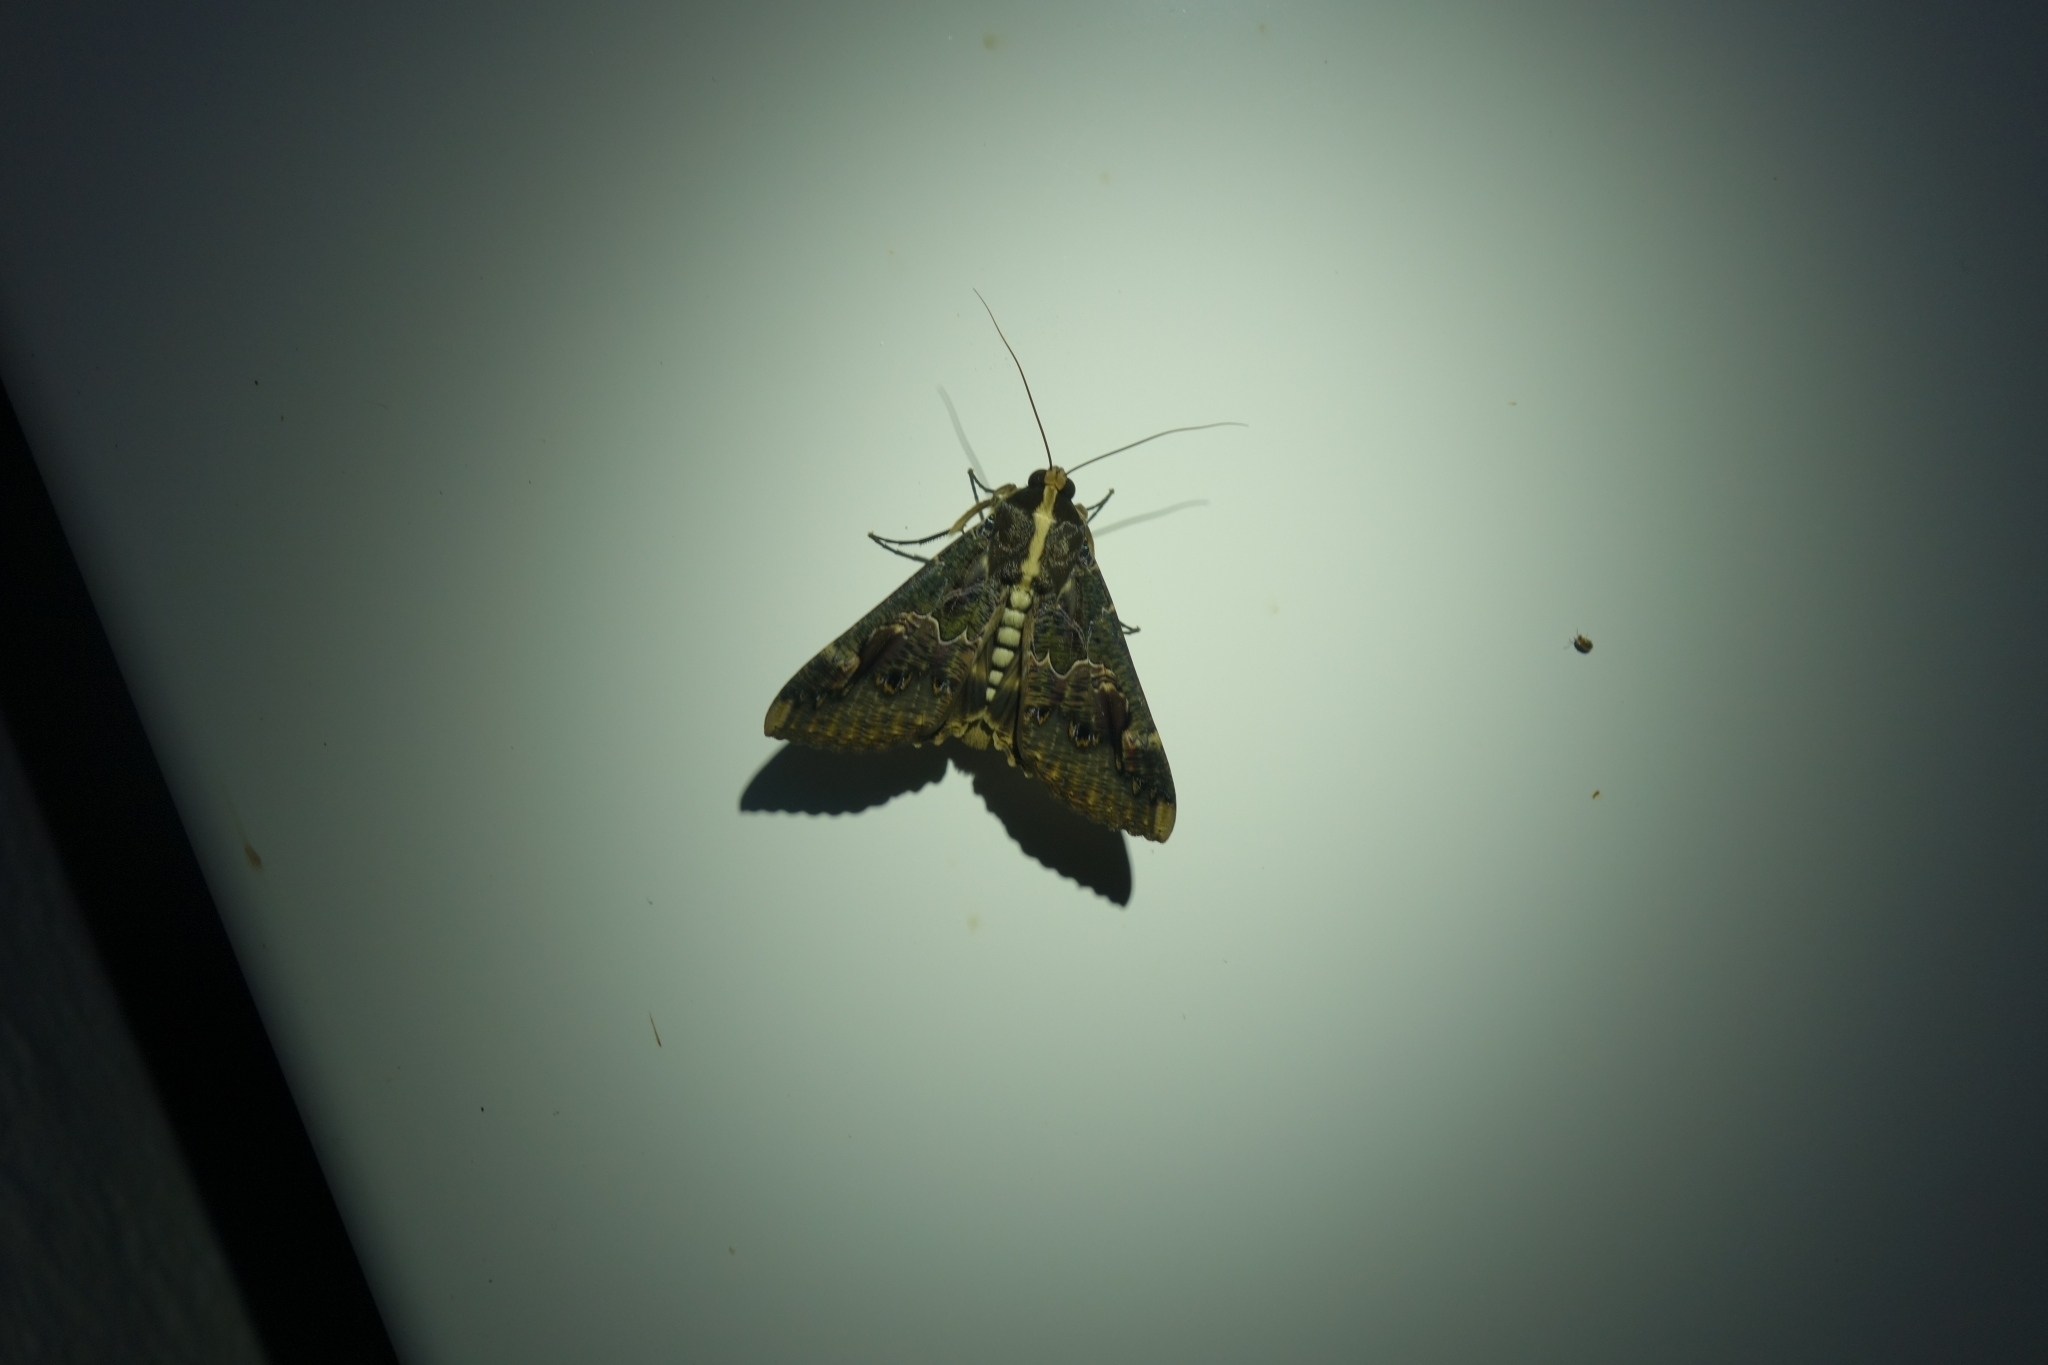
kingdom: Animalia
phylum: Arthropoda
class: Insecta
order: Lepidoptera
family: Erebidae
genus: Sphingomorpha
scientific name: Sphingomorpha chlorea
